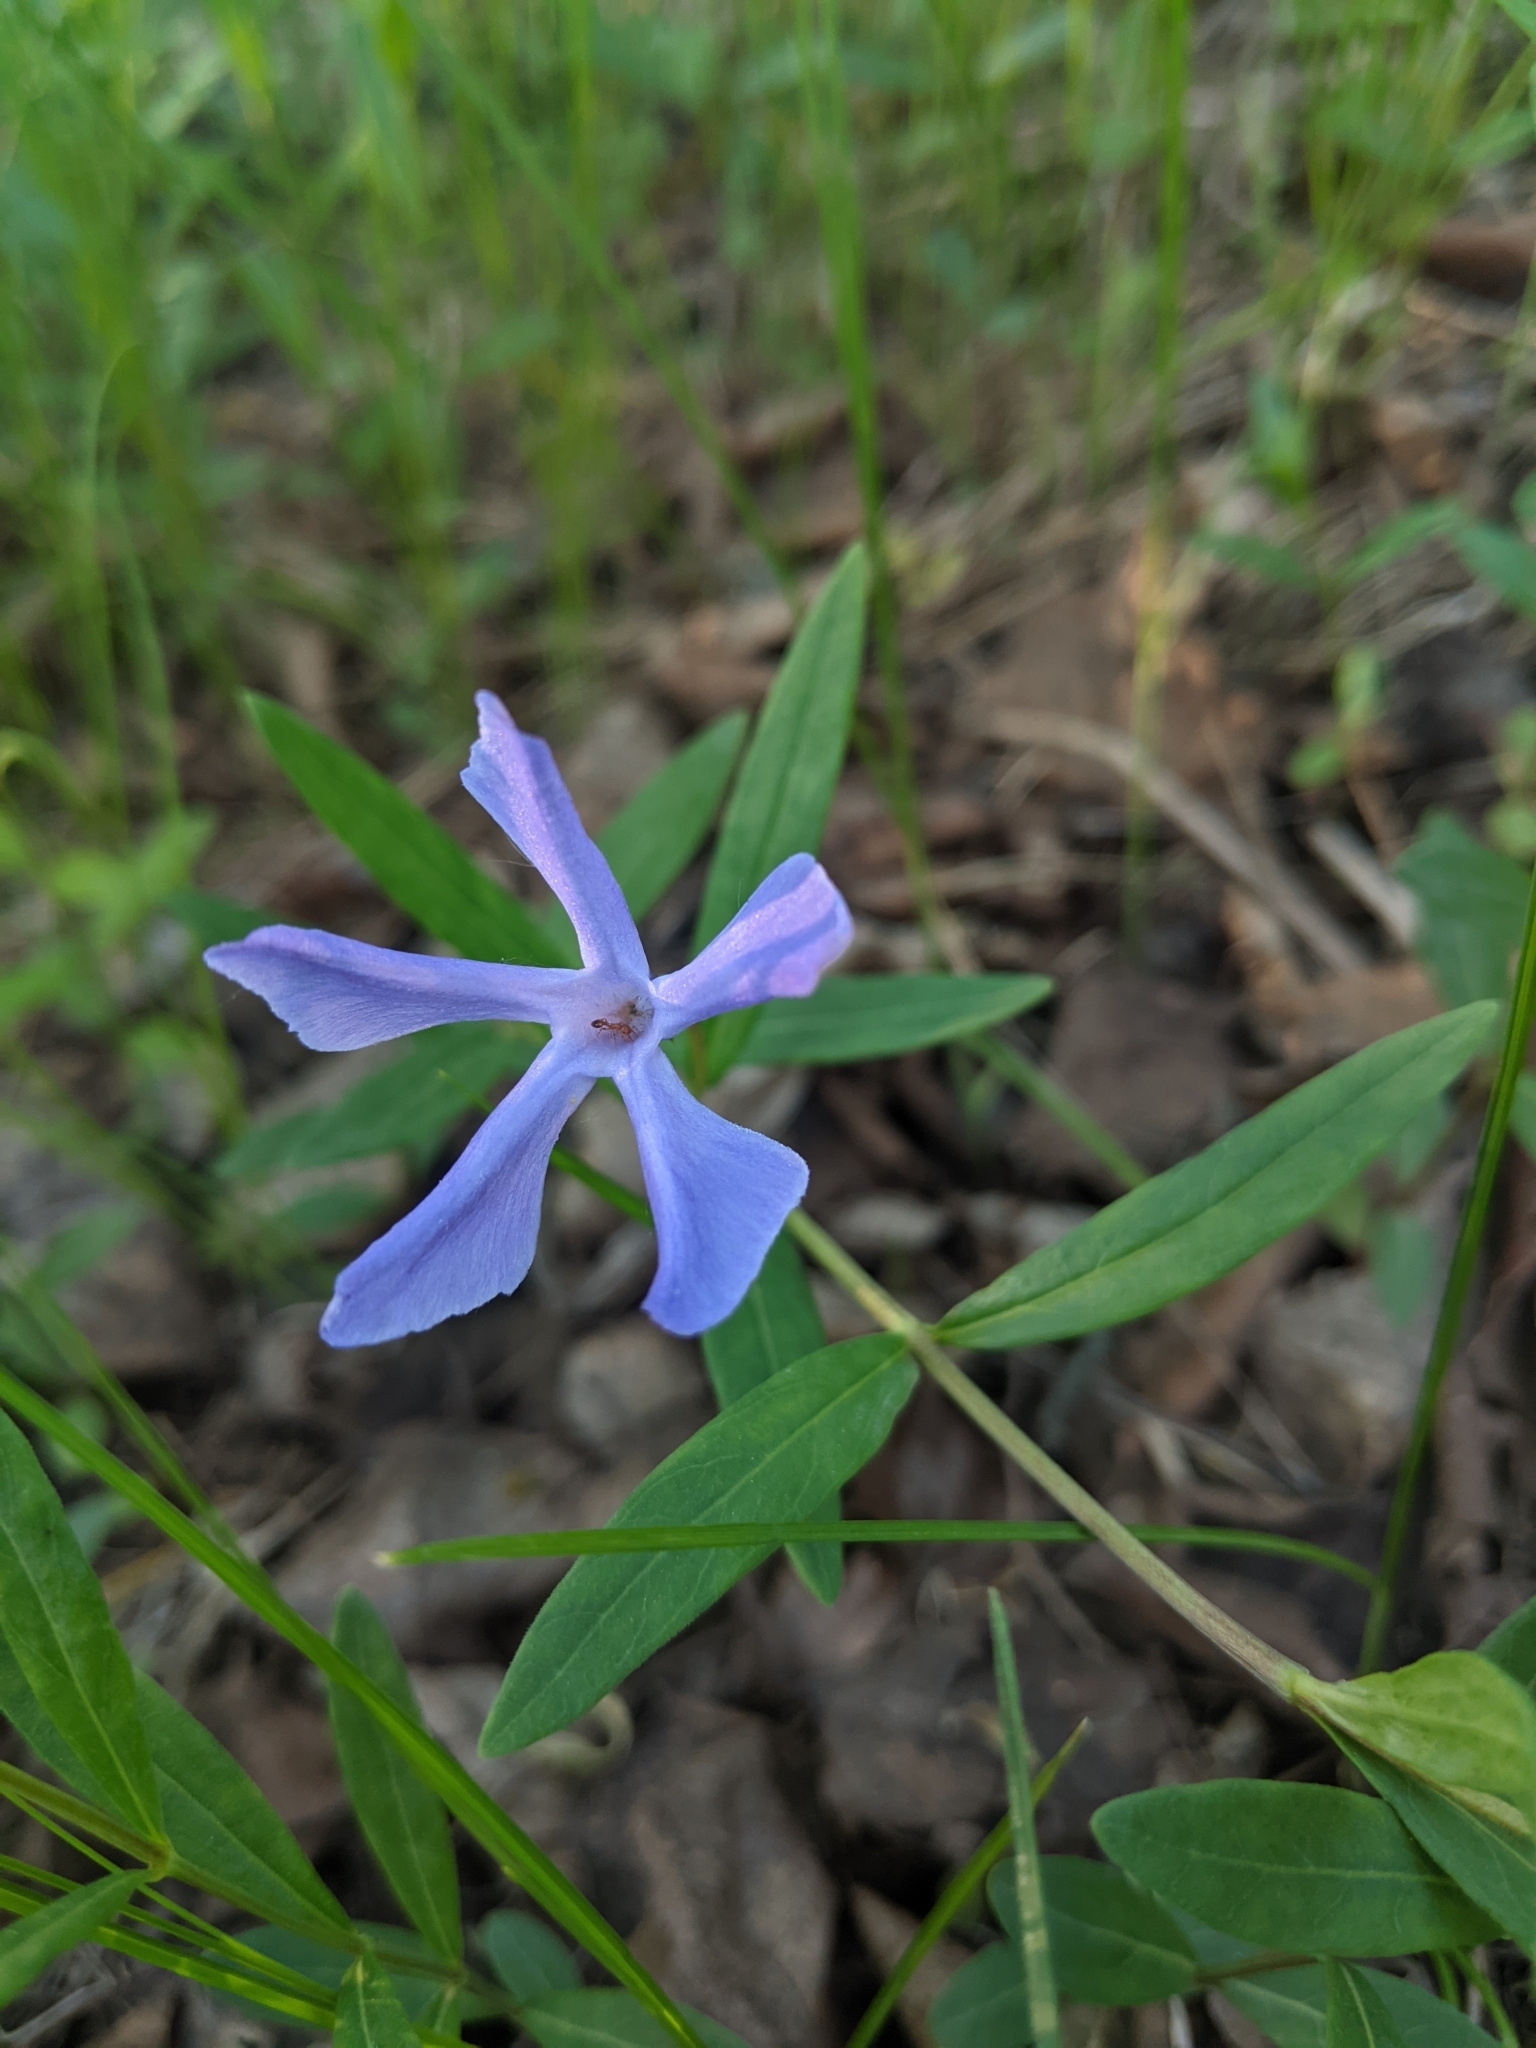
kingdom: Plantae
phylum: Tracheophyta
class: Magnoliopsida
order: Gentianales
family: Apocynaceae
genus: Vinca
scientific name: Vinca herbacea
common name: Herbaceous periwinkle
